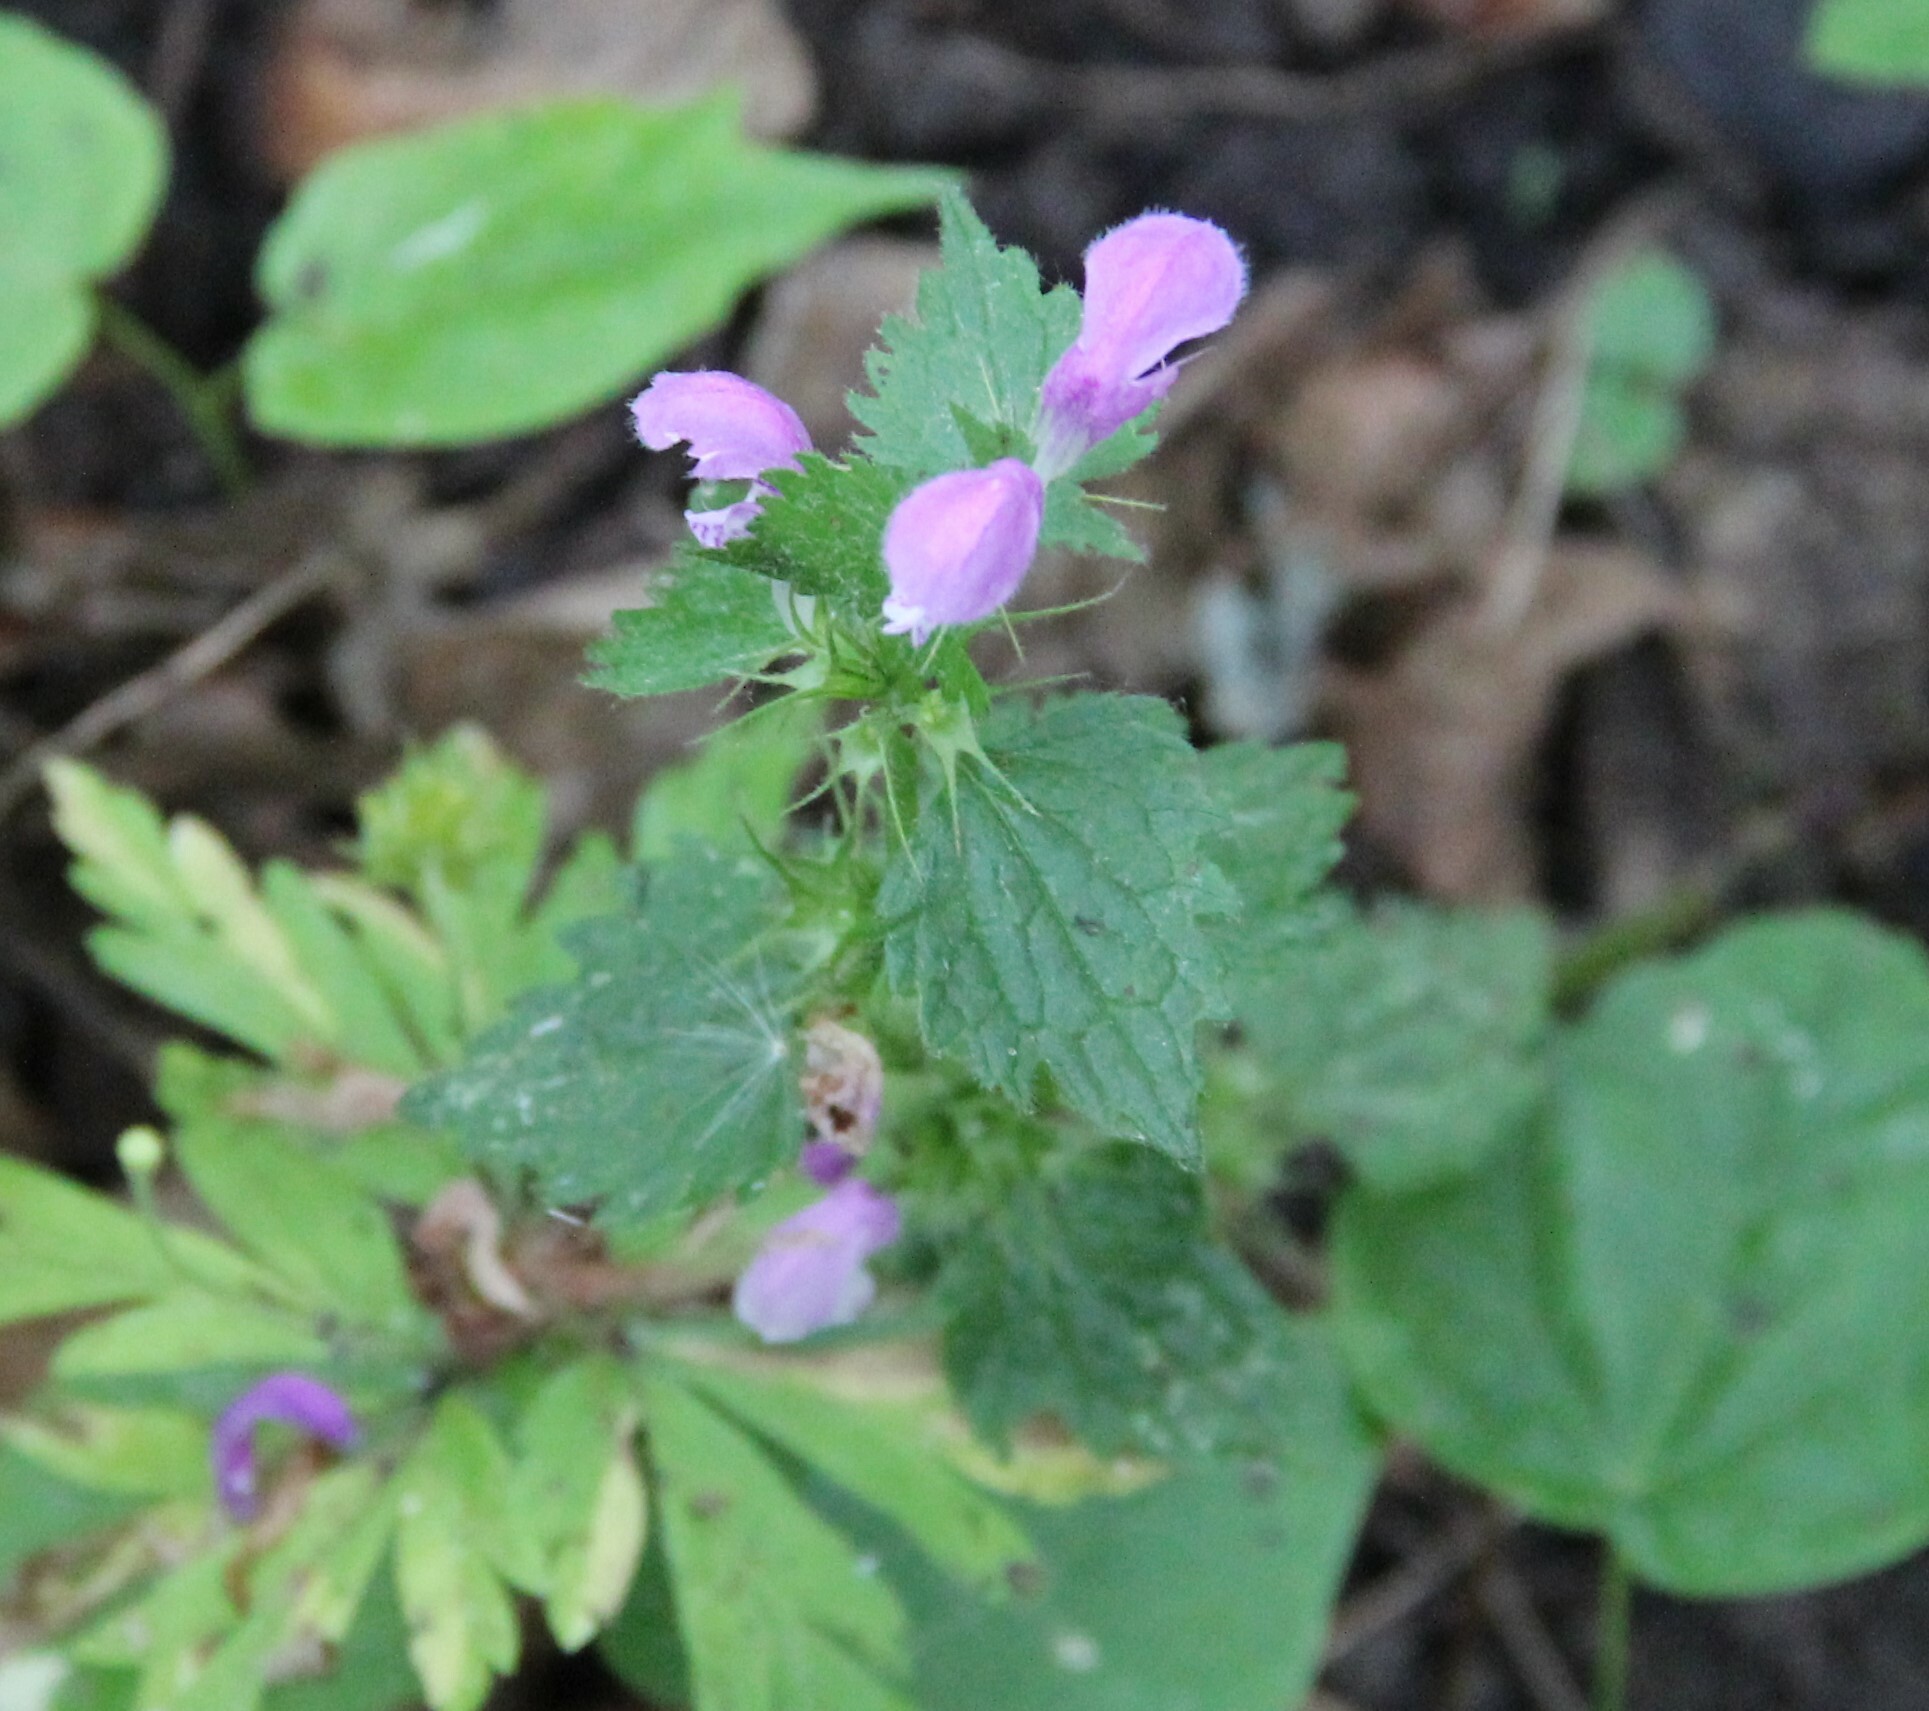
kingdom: Plantae
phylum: Tracheophyta
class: Magnoliopsida
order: Lamiales
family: Lamiaceae
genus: Lamium
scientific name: Lamium maculatum
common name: Spotted dead-nettle
